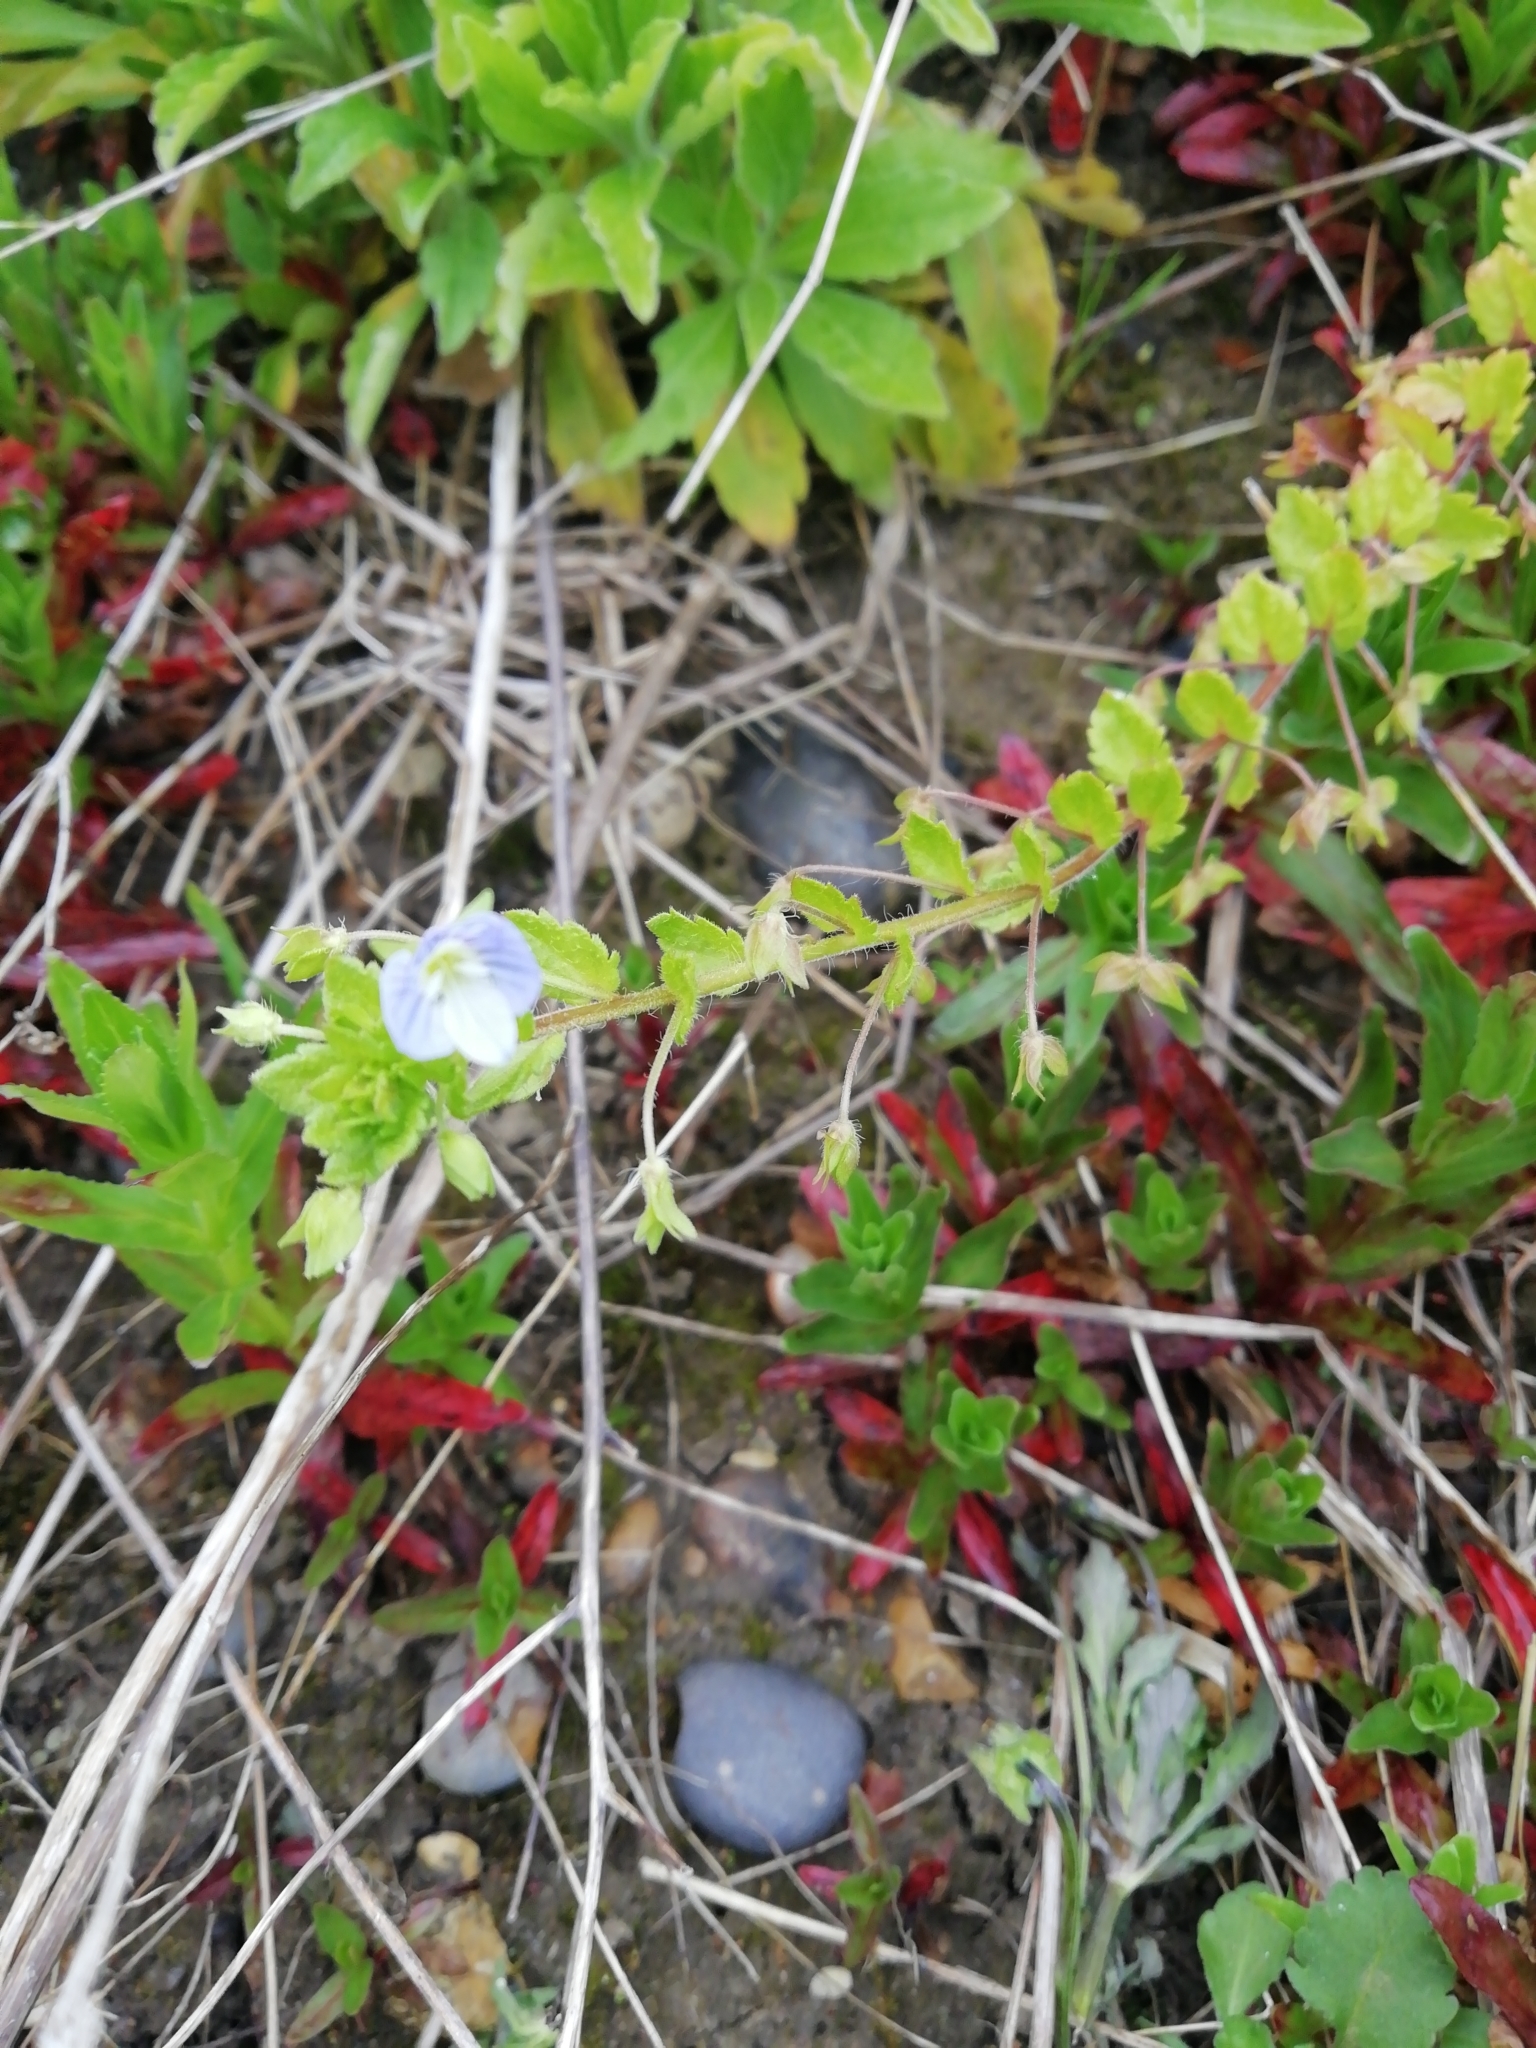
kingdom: Plantae
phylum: Tracheophyta
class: Magnoliopsida
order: Lamiales
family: Plantaginaceae
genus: Veronica
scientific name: Veronica persica
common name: Common field-speedwell
